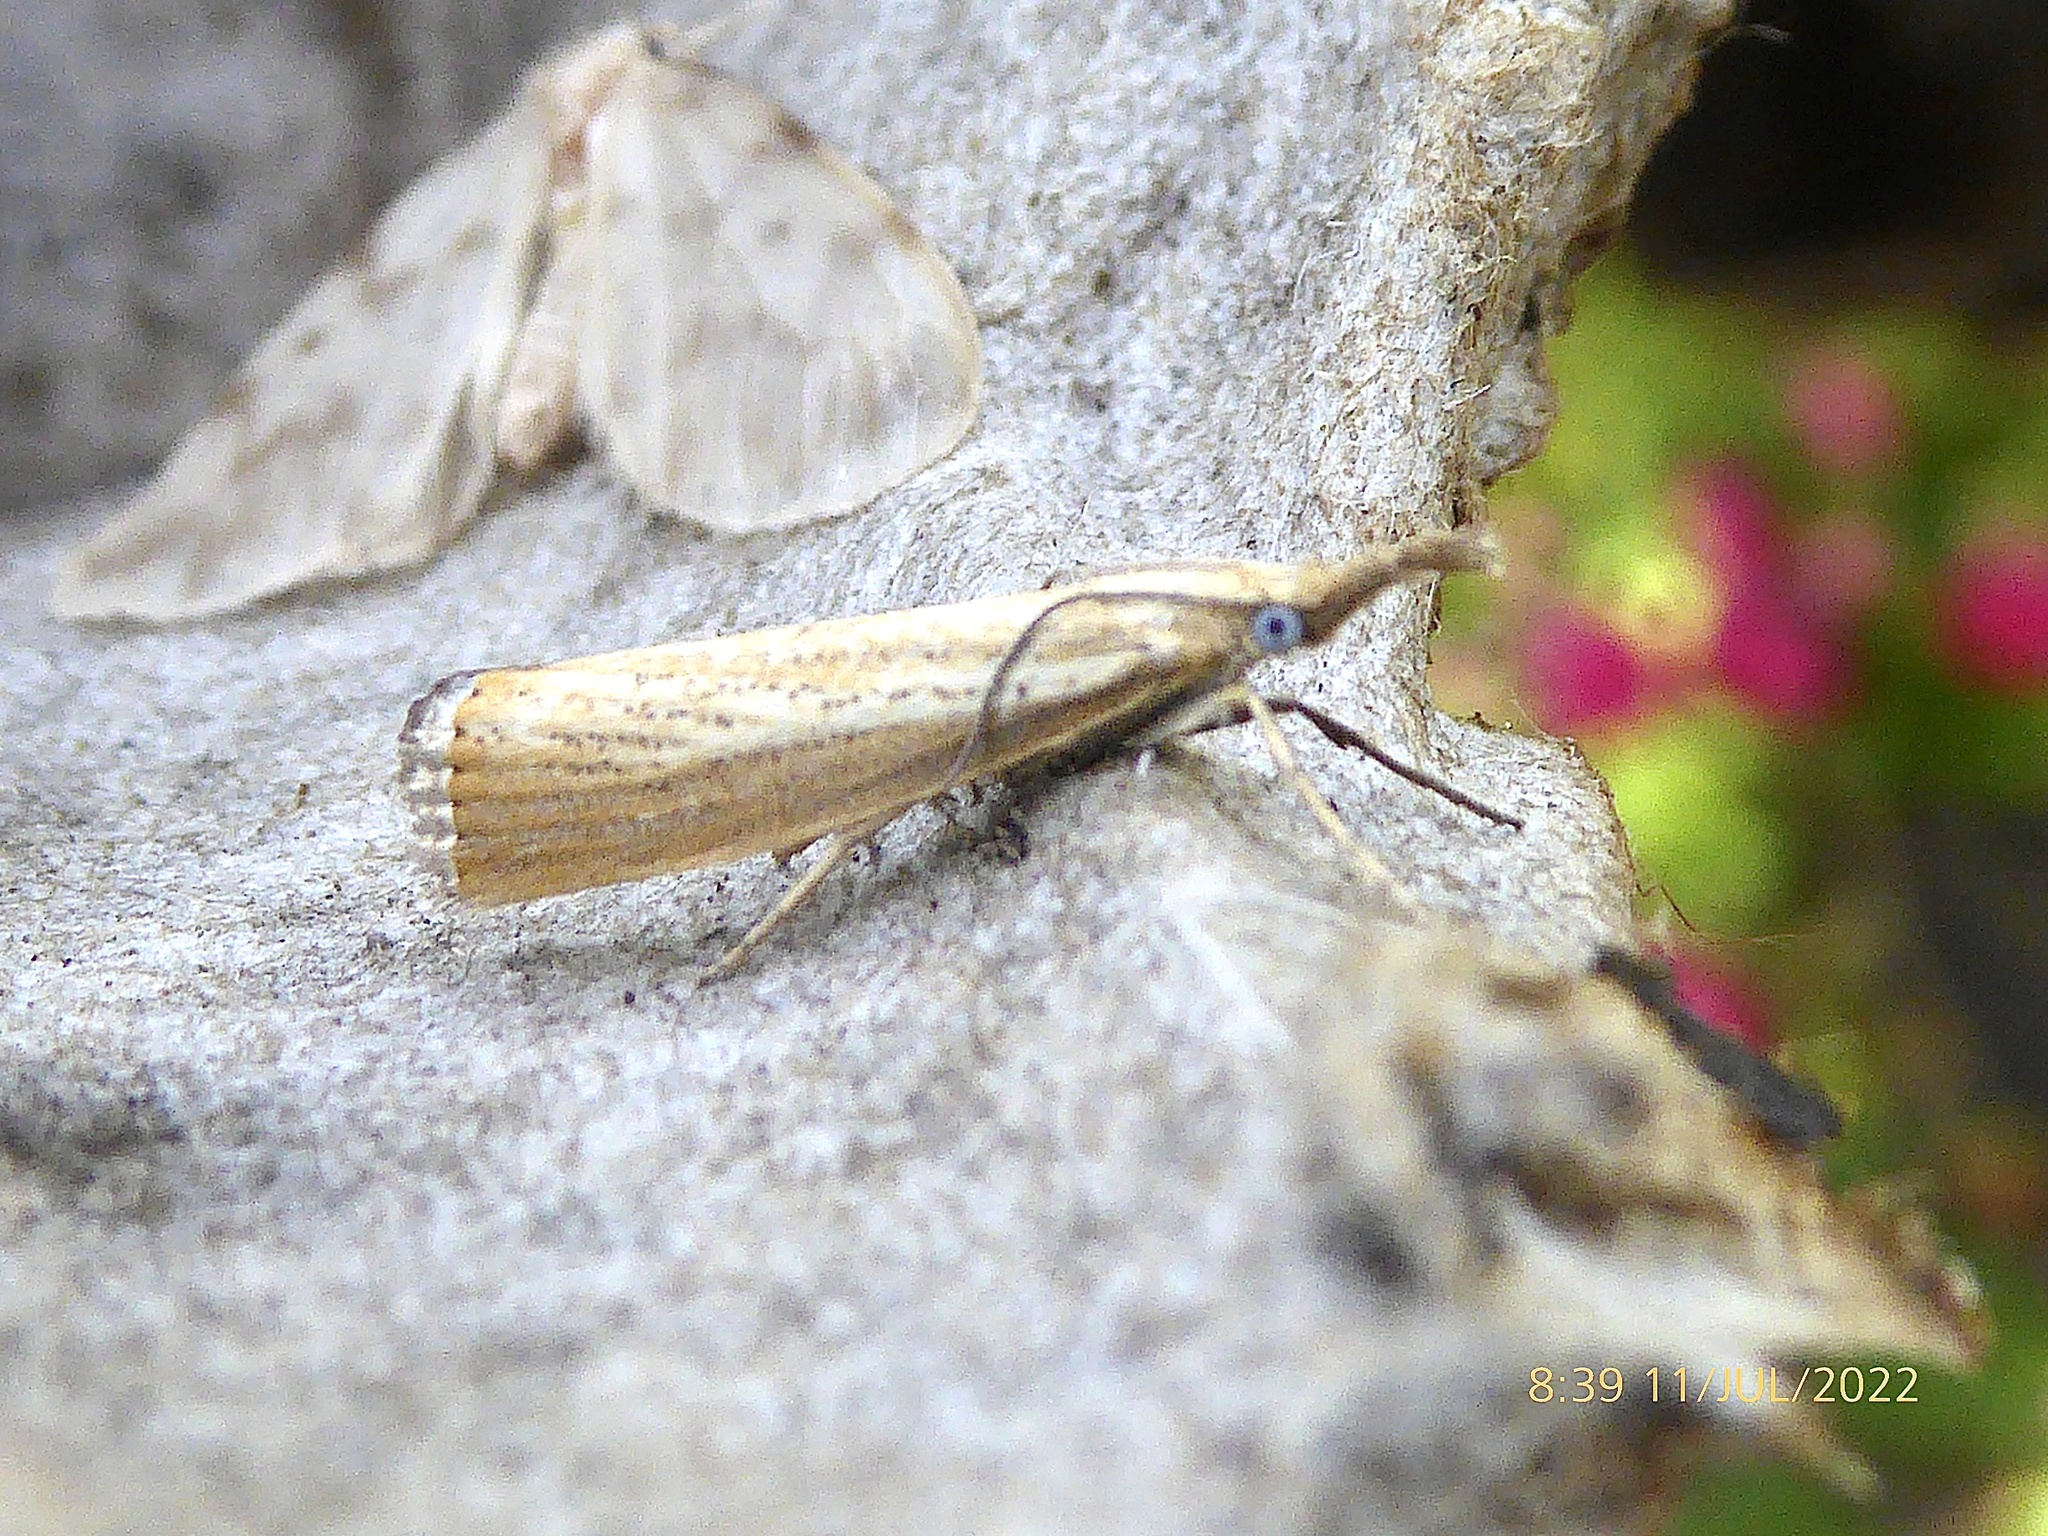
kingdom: Animalia
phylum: Arthropoda
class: Insecta
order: Lepidoptera
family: Crambidae
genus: Agriphila
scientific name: Agriphila straminella
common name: Straw grass-veneer
